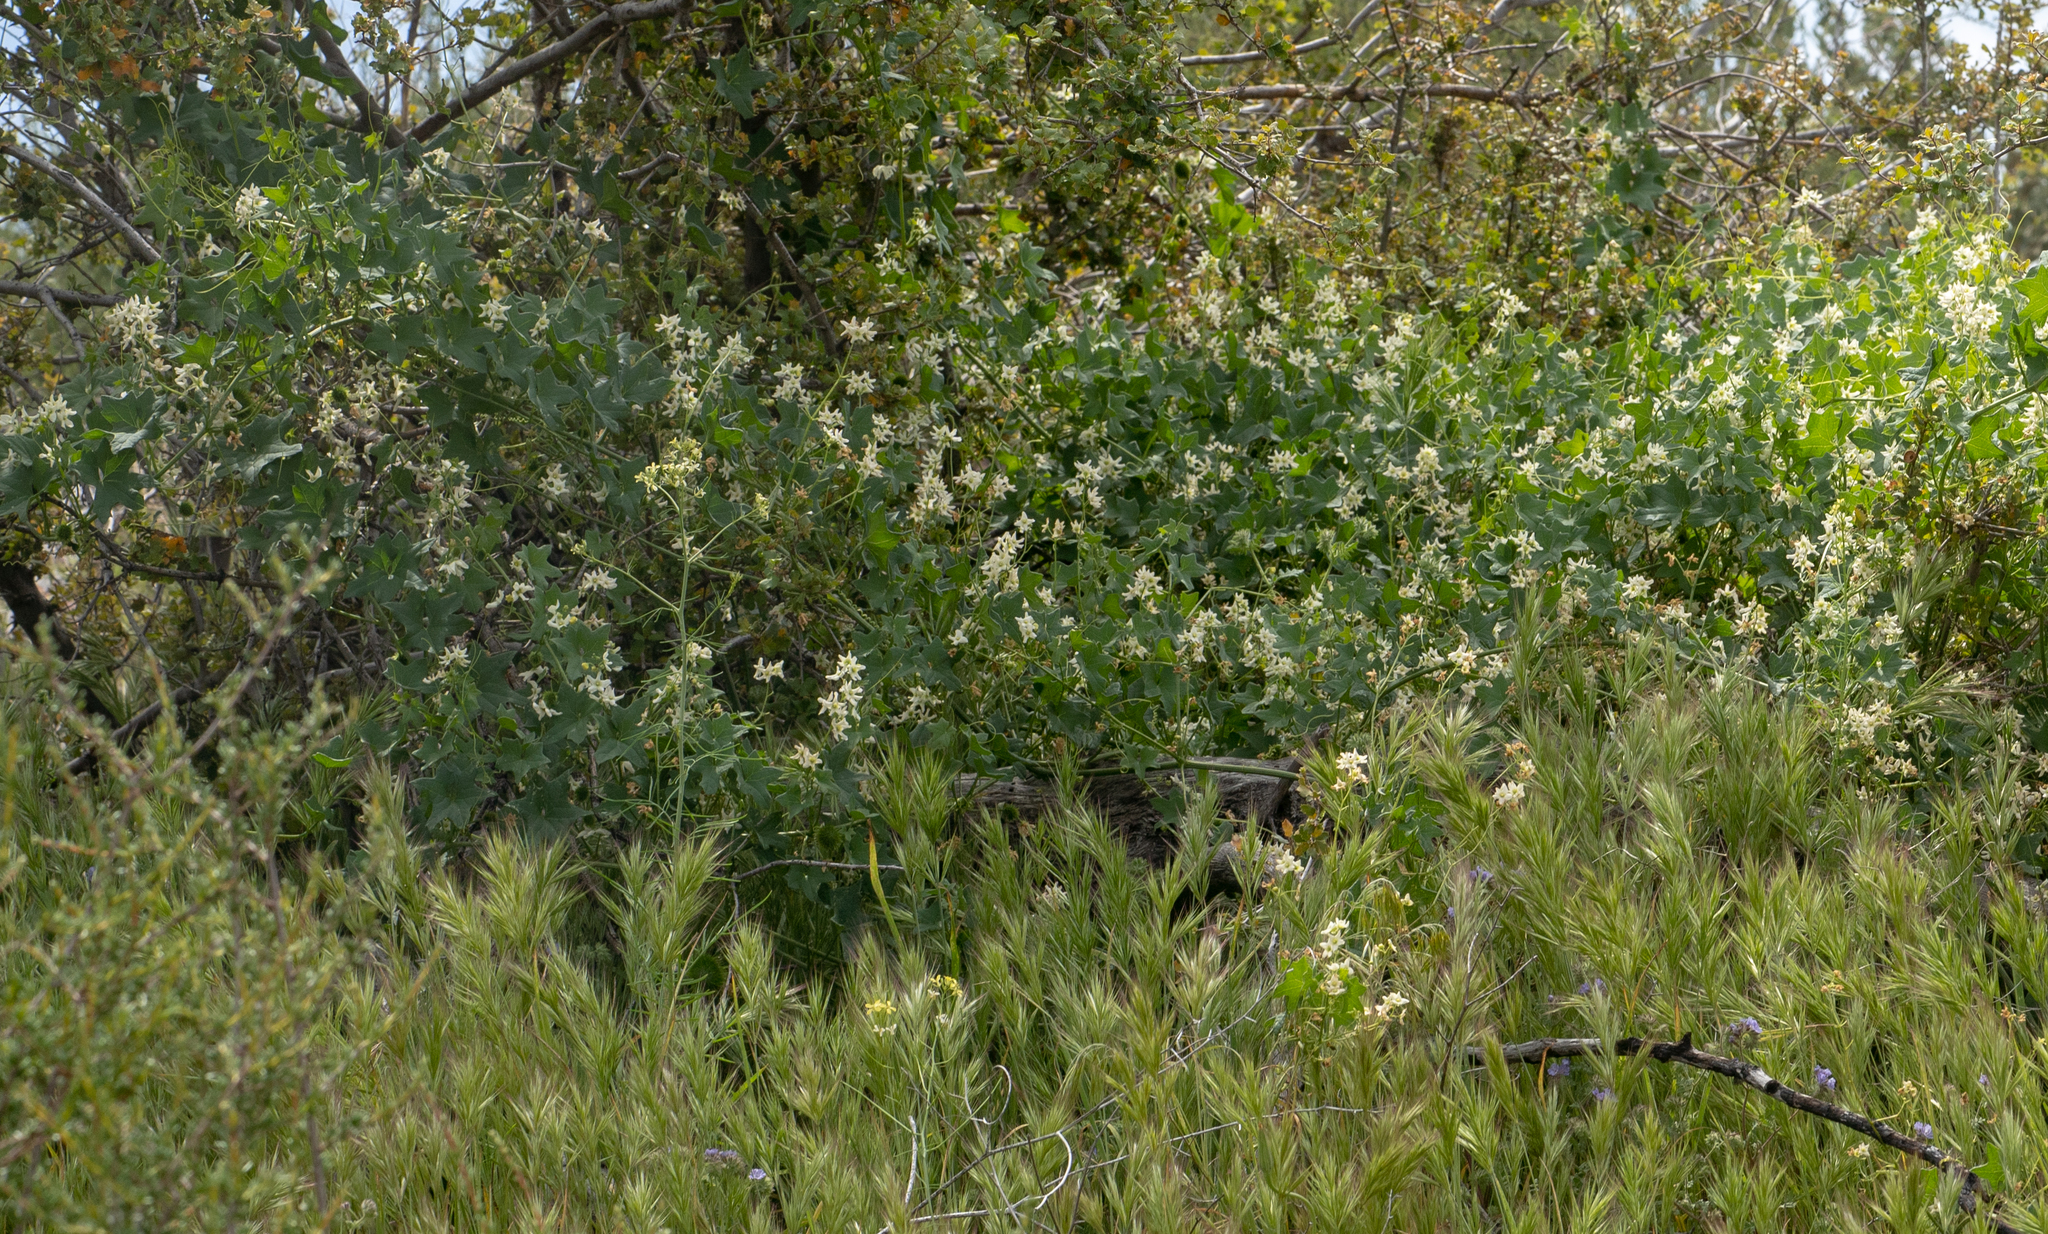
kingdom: Plantae
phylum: Tracheophyta
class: Magnoliopsida
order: Cucurbitales
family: Cucurbitaceae
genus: Marah
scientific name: Marah macrocarpa
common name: Cucamonga manroot
